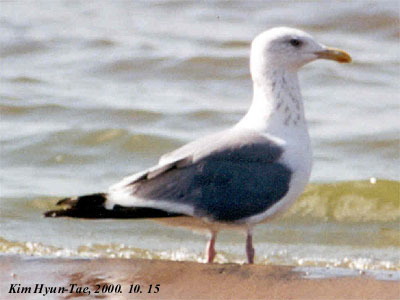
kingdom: Animalia
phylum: Chordata
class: Aves
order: Charadriiformes
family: Laridae
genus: Larus
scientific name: Larus fuscus
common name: Lesser black-backed gull
